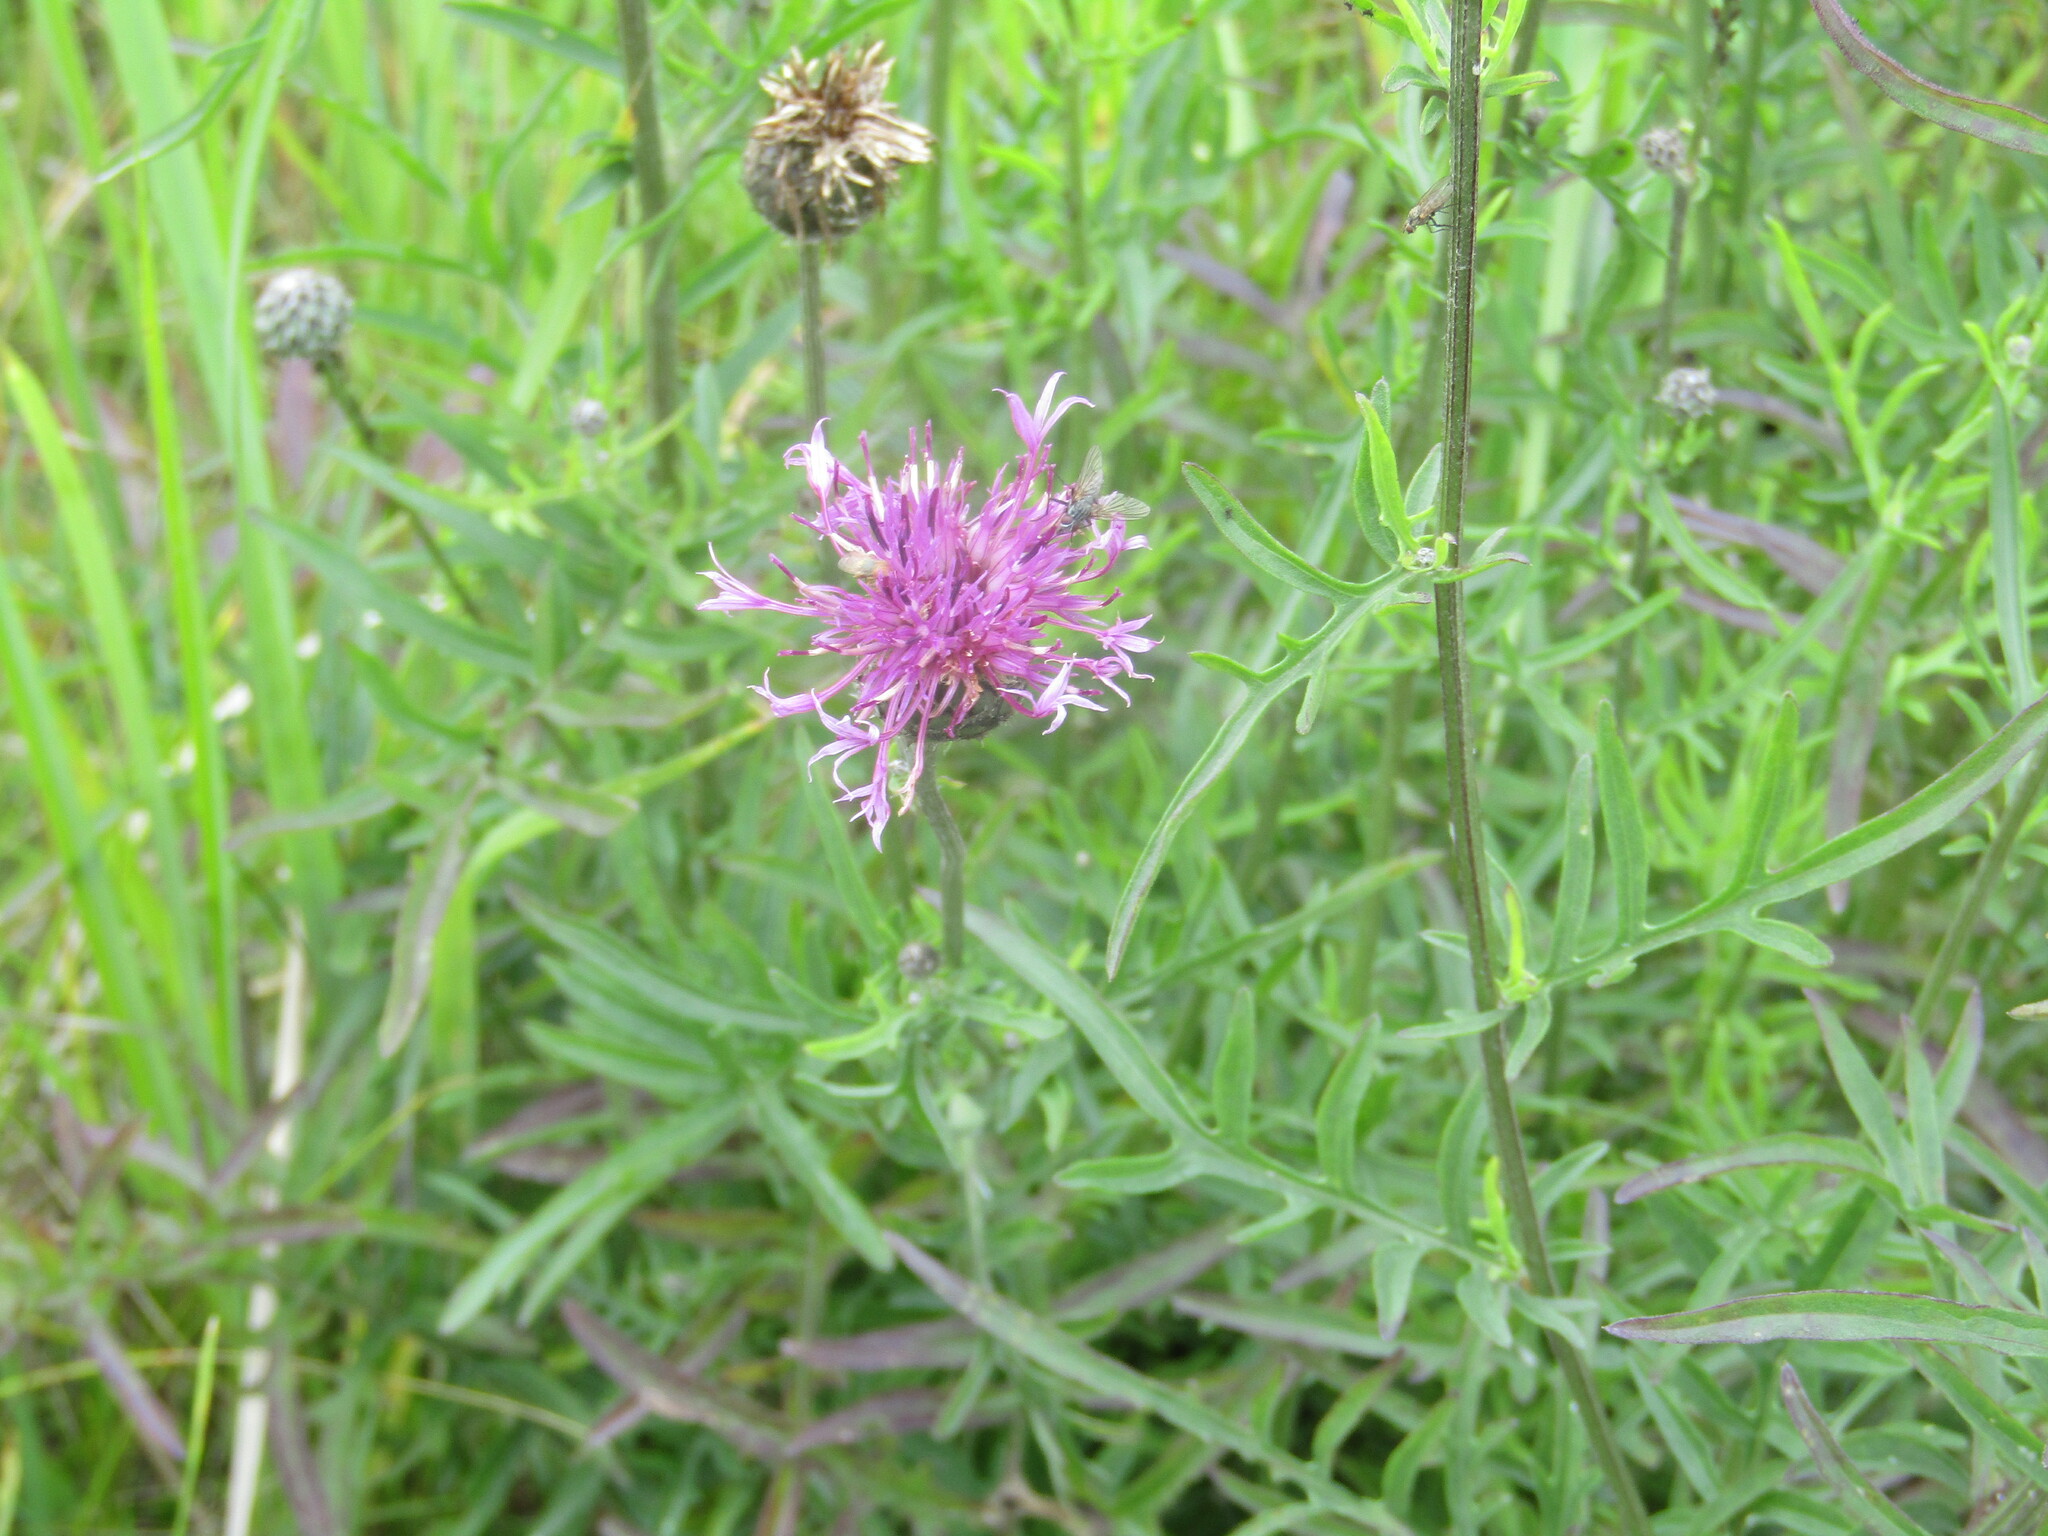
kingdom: Plantae
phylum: Tracheophyta
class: Magnoliopsida
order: Asterales
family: Asteraceae
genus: Centaurea
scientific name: Centaurea scabiosa
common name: Greater knapweed
